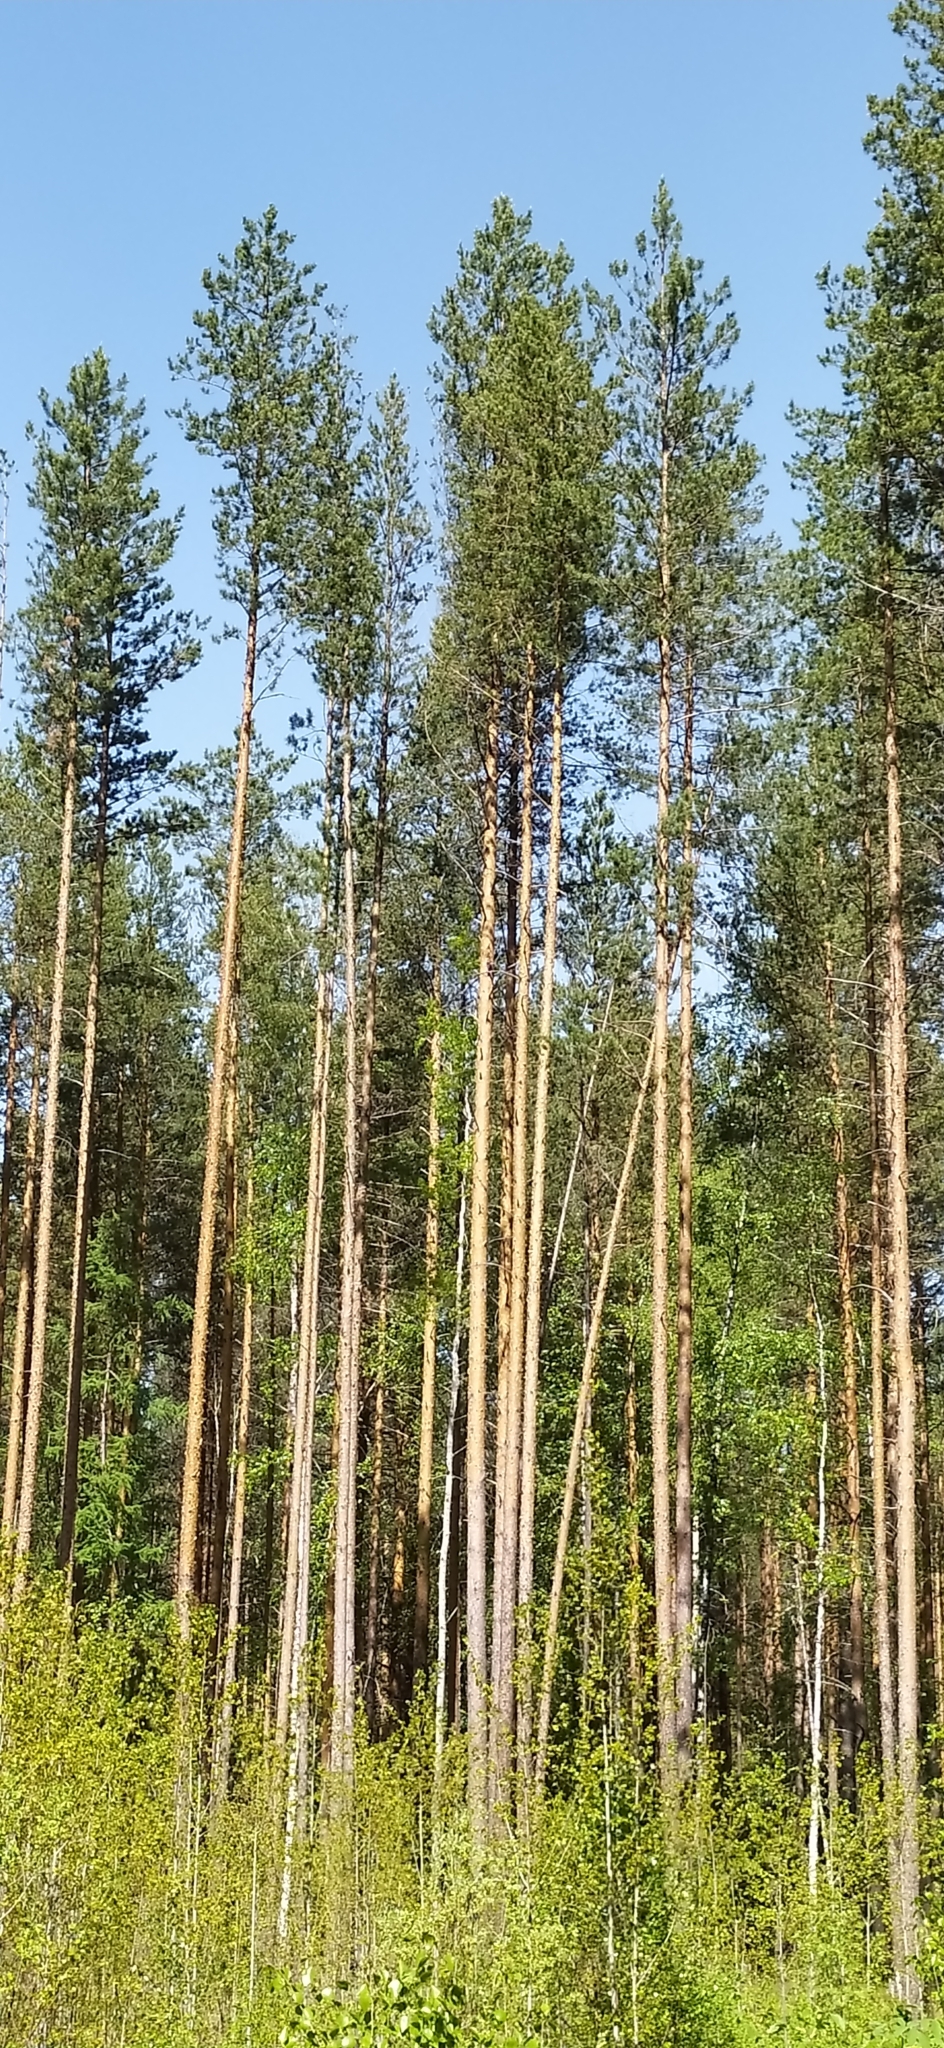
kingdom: Plantae
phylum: Tracheophyta
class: Pinopsida
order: Pinales
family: Pinaceae
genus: Pinus
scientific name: Pinus sylvestris
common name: Scots pine
